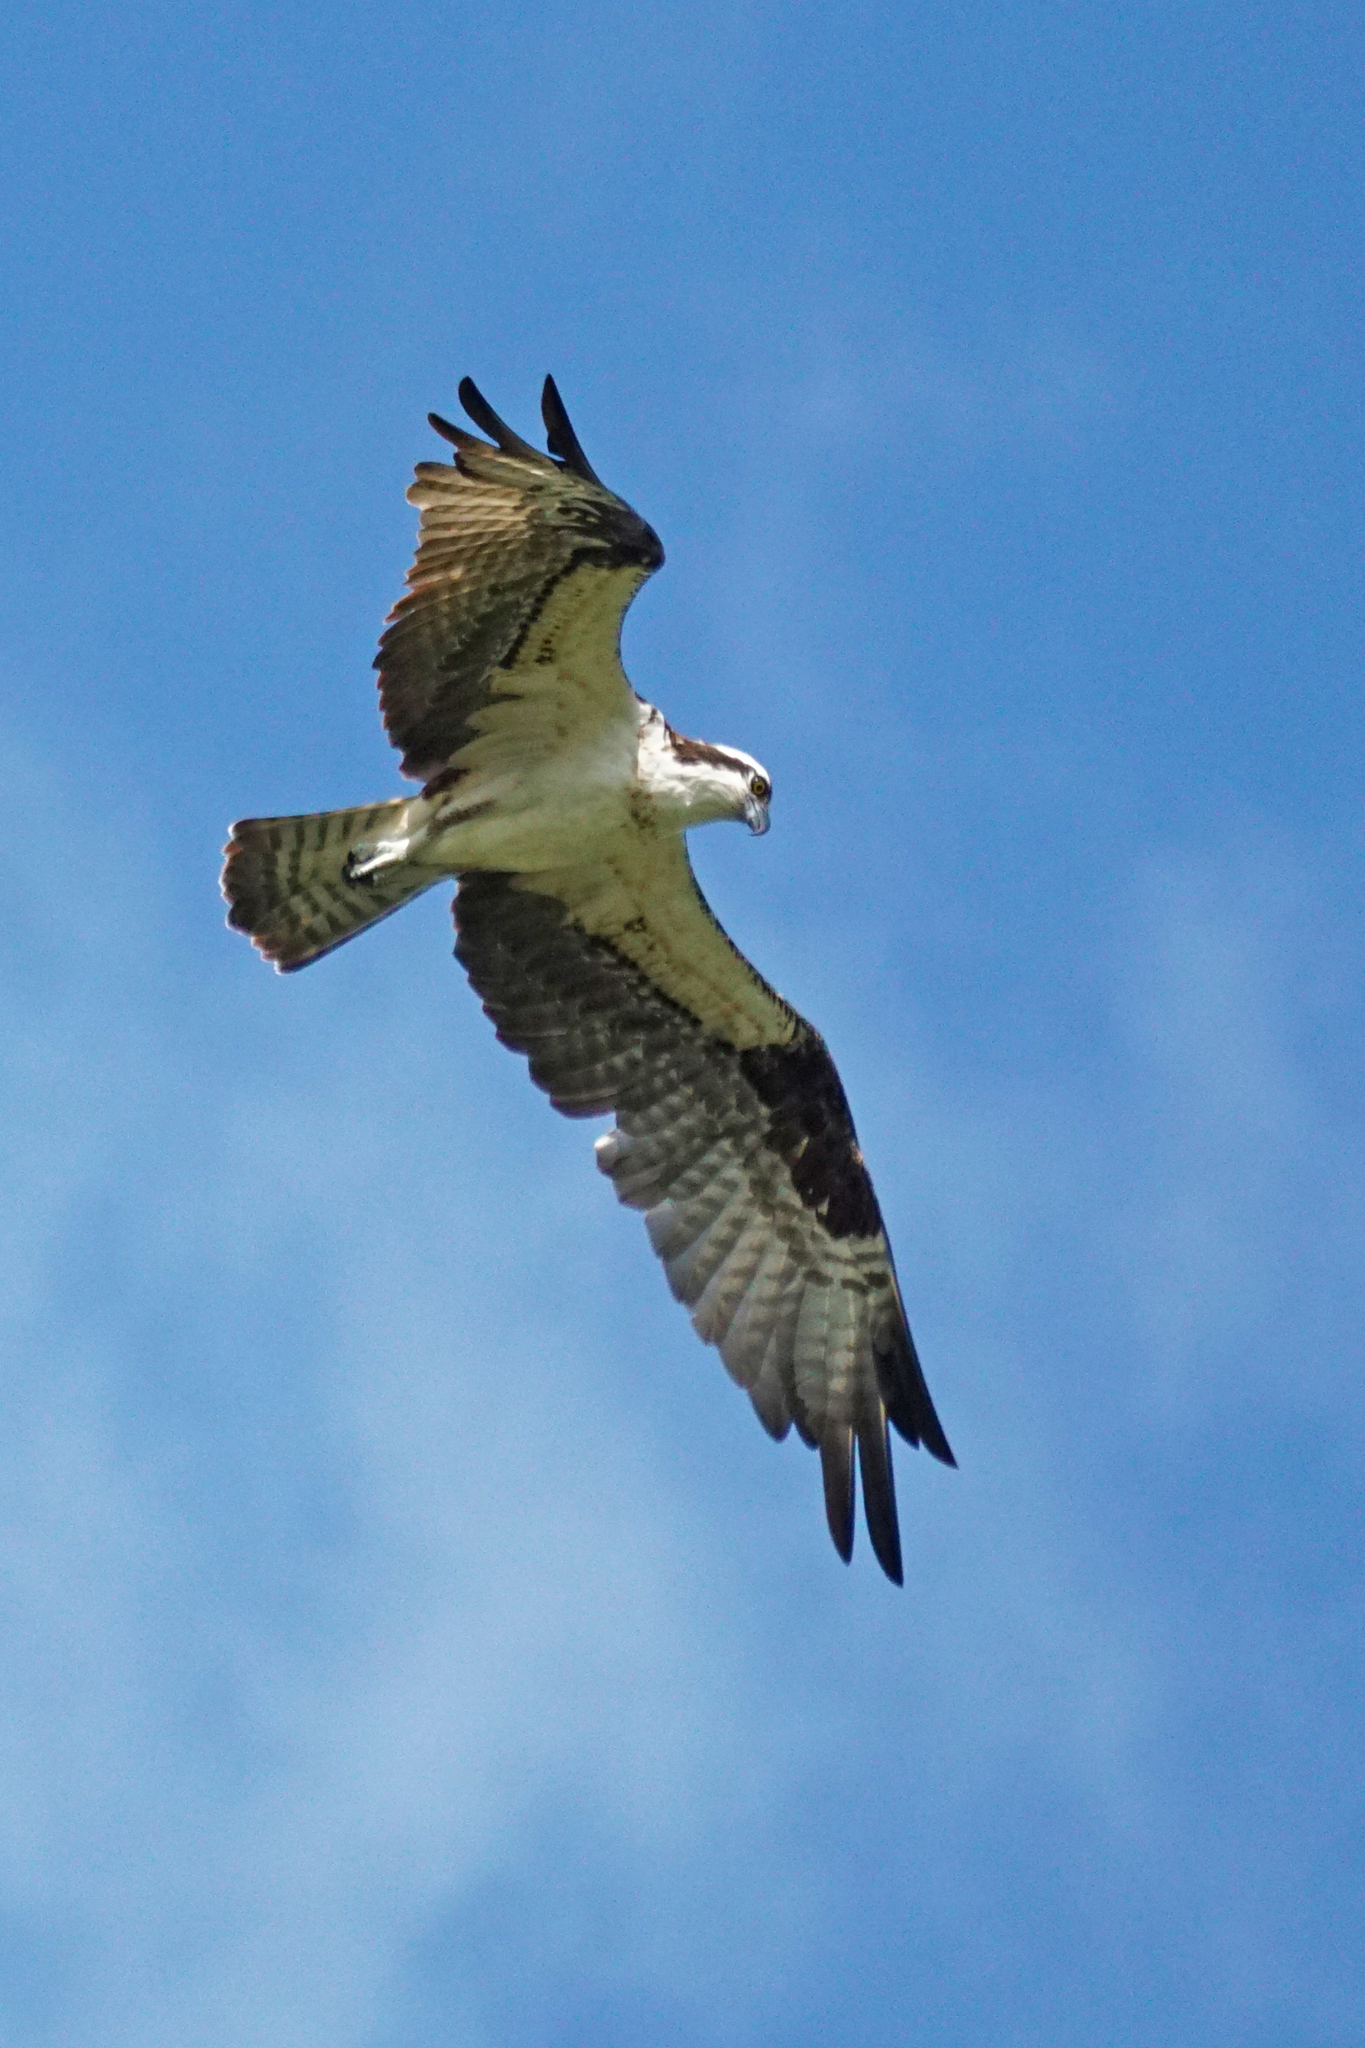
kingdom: Animalia
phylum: Chordata
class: Aves
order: Accipitriformes
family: Pandionidae
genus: Pandion
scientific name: Pandion haliaetus
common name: Osprey
